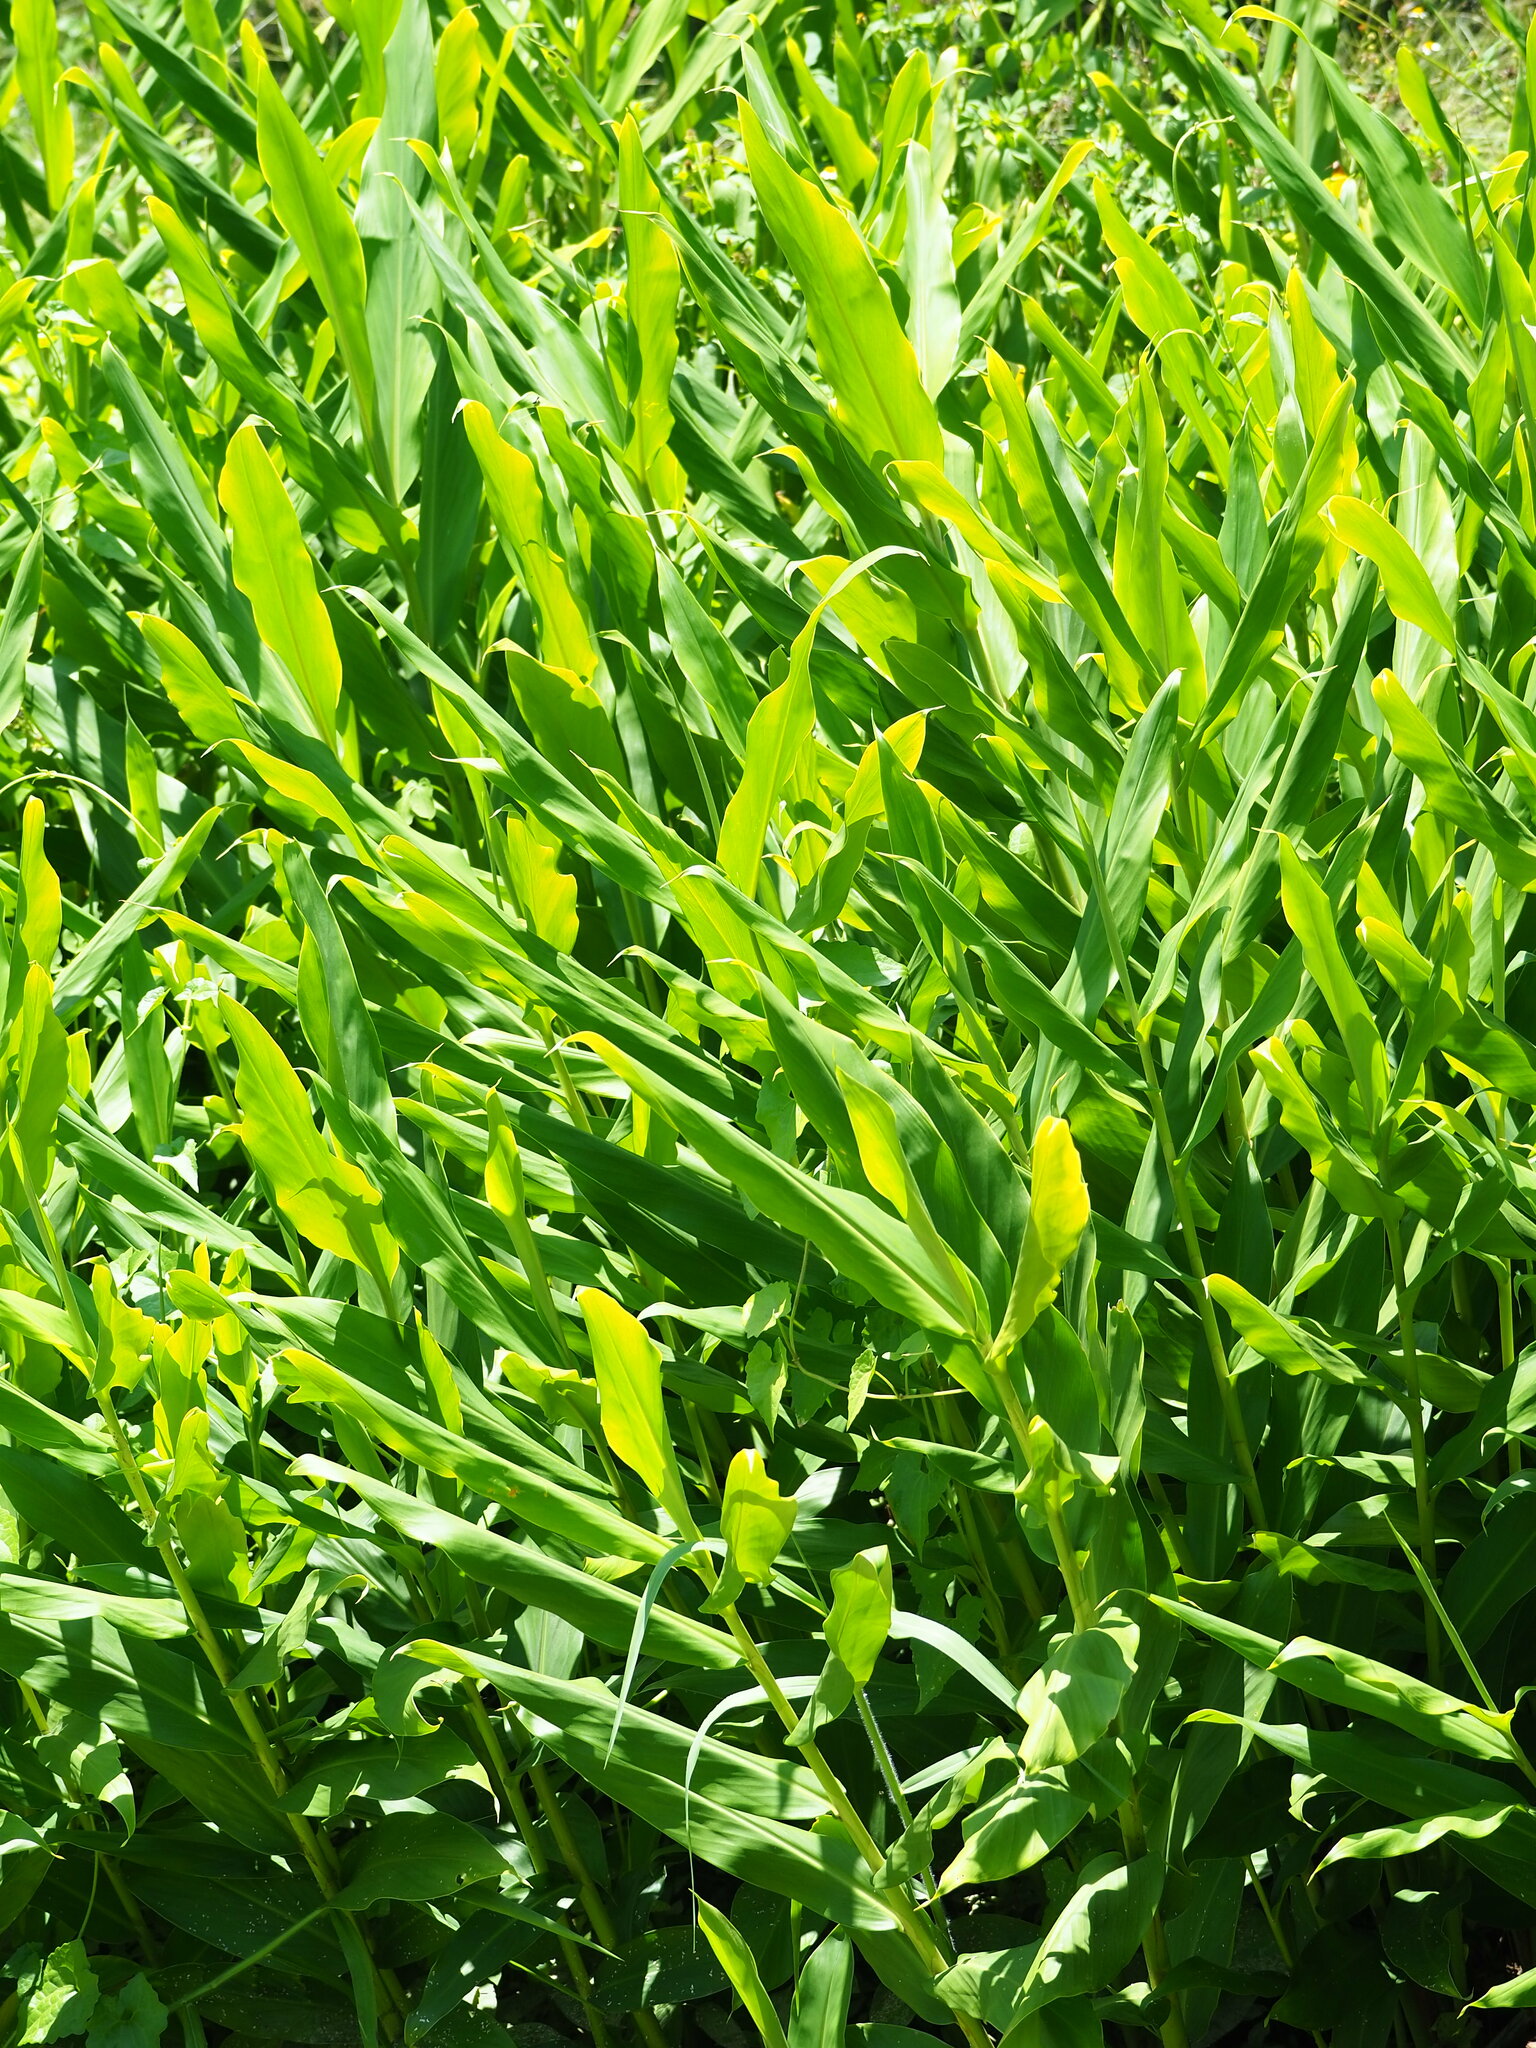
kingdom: Plantae
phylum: Tracheophyta
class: Liliopsida
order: Zingiberales
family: Zingiberaceae
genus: Hedychium
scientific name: Hedychium coronarium
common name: White garland-lily
